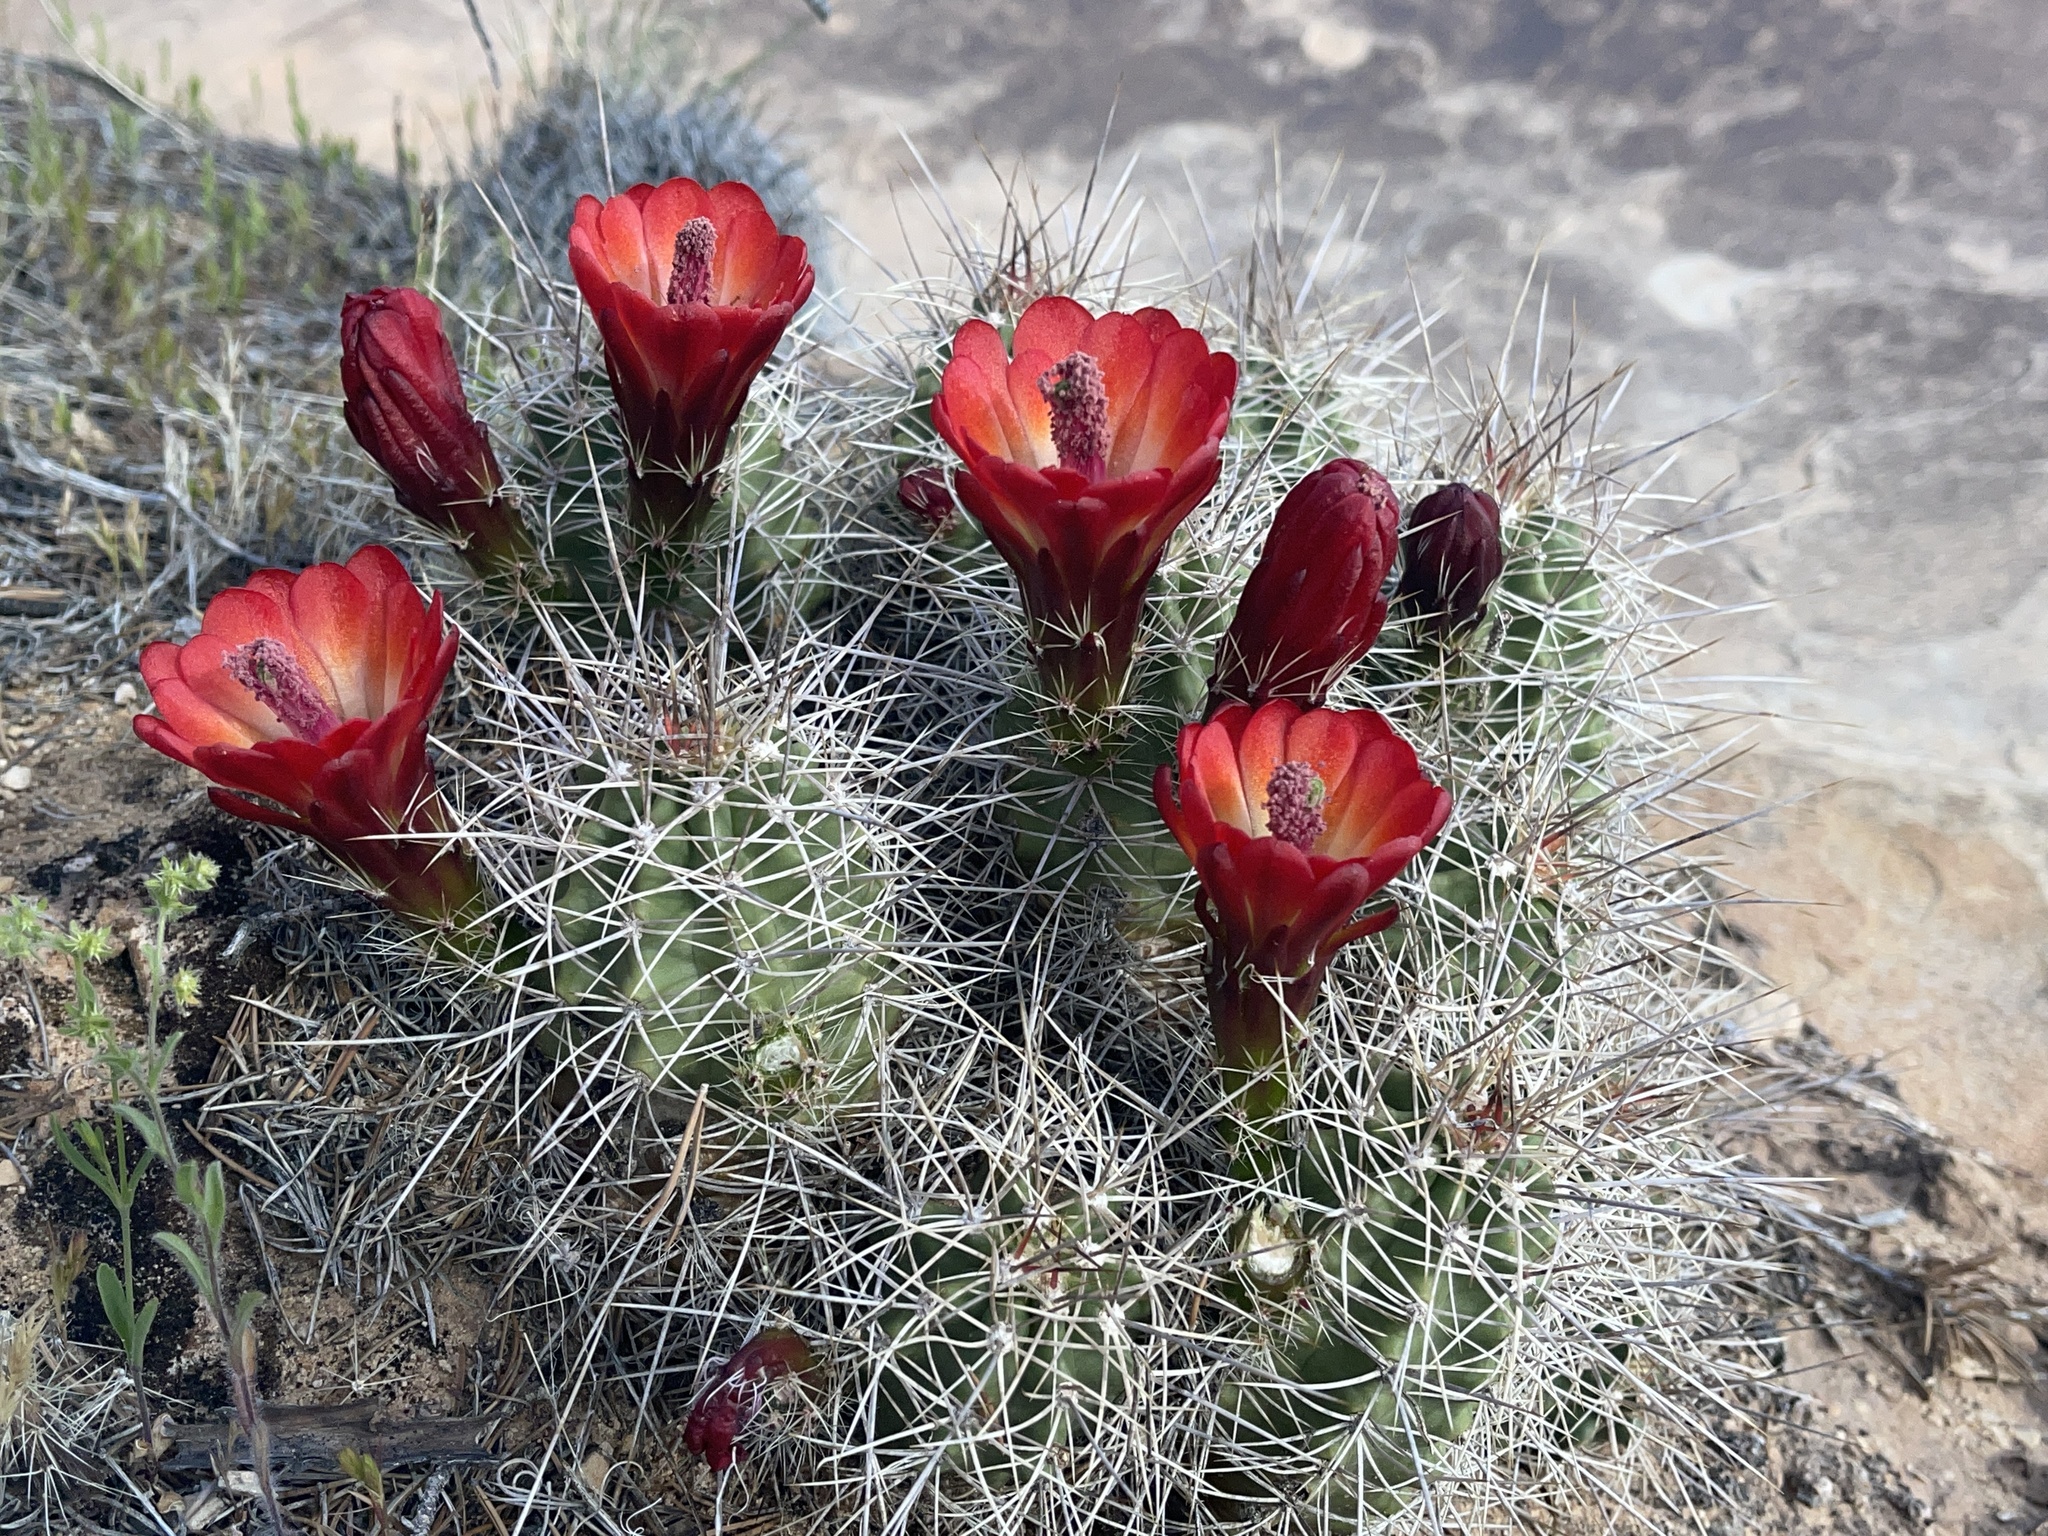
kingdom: Plantae
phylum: Tracheophyta
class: Magnoliopsida
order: Caryophyllales
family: Cactaceae
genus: Echinocereus
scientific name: Echinocereus triglochidiatus
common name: Claretcup hedgehog
